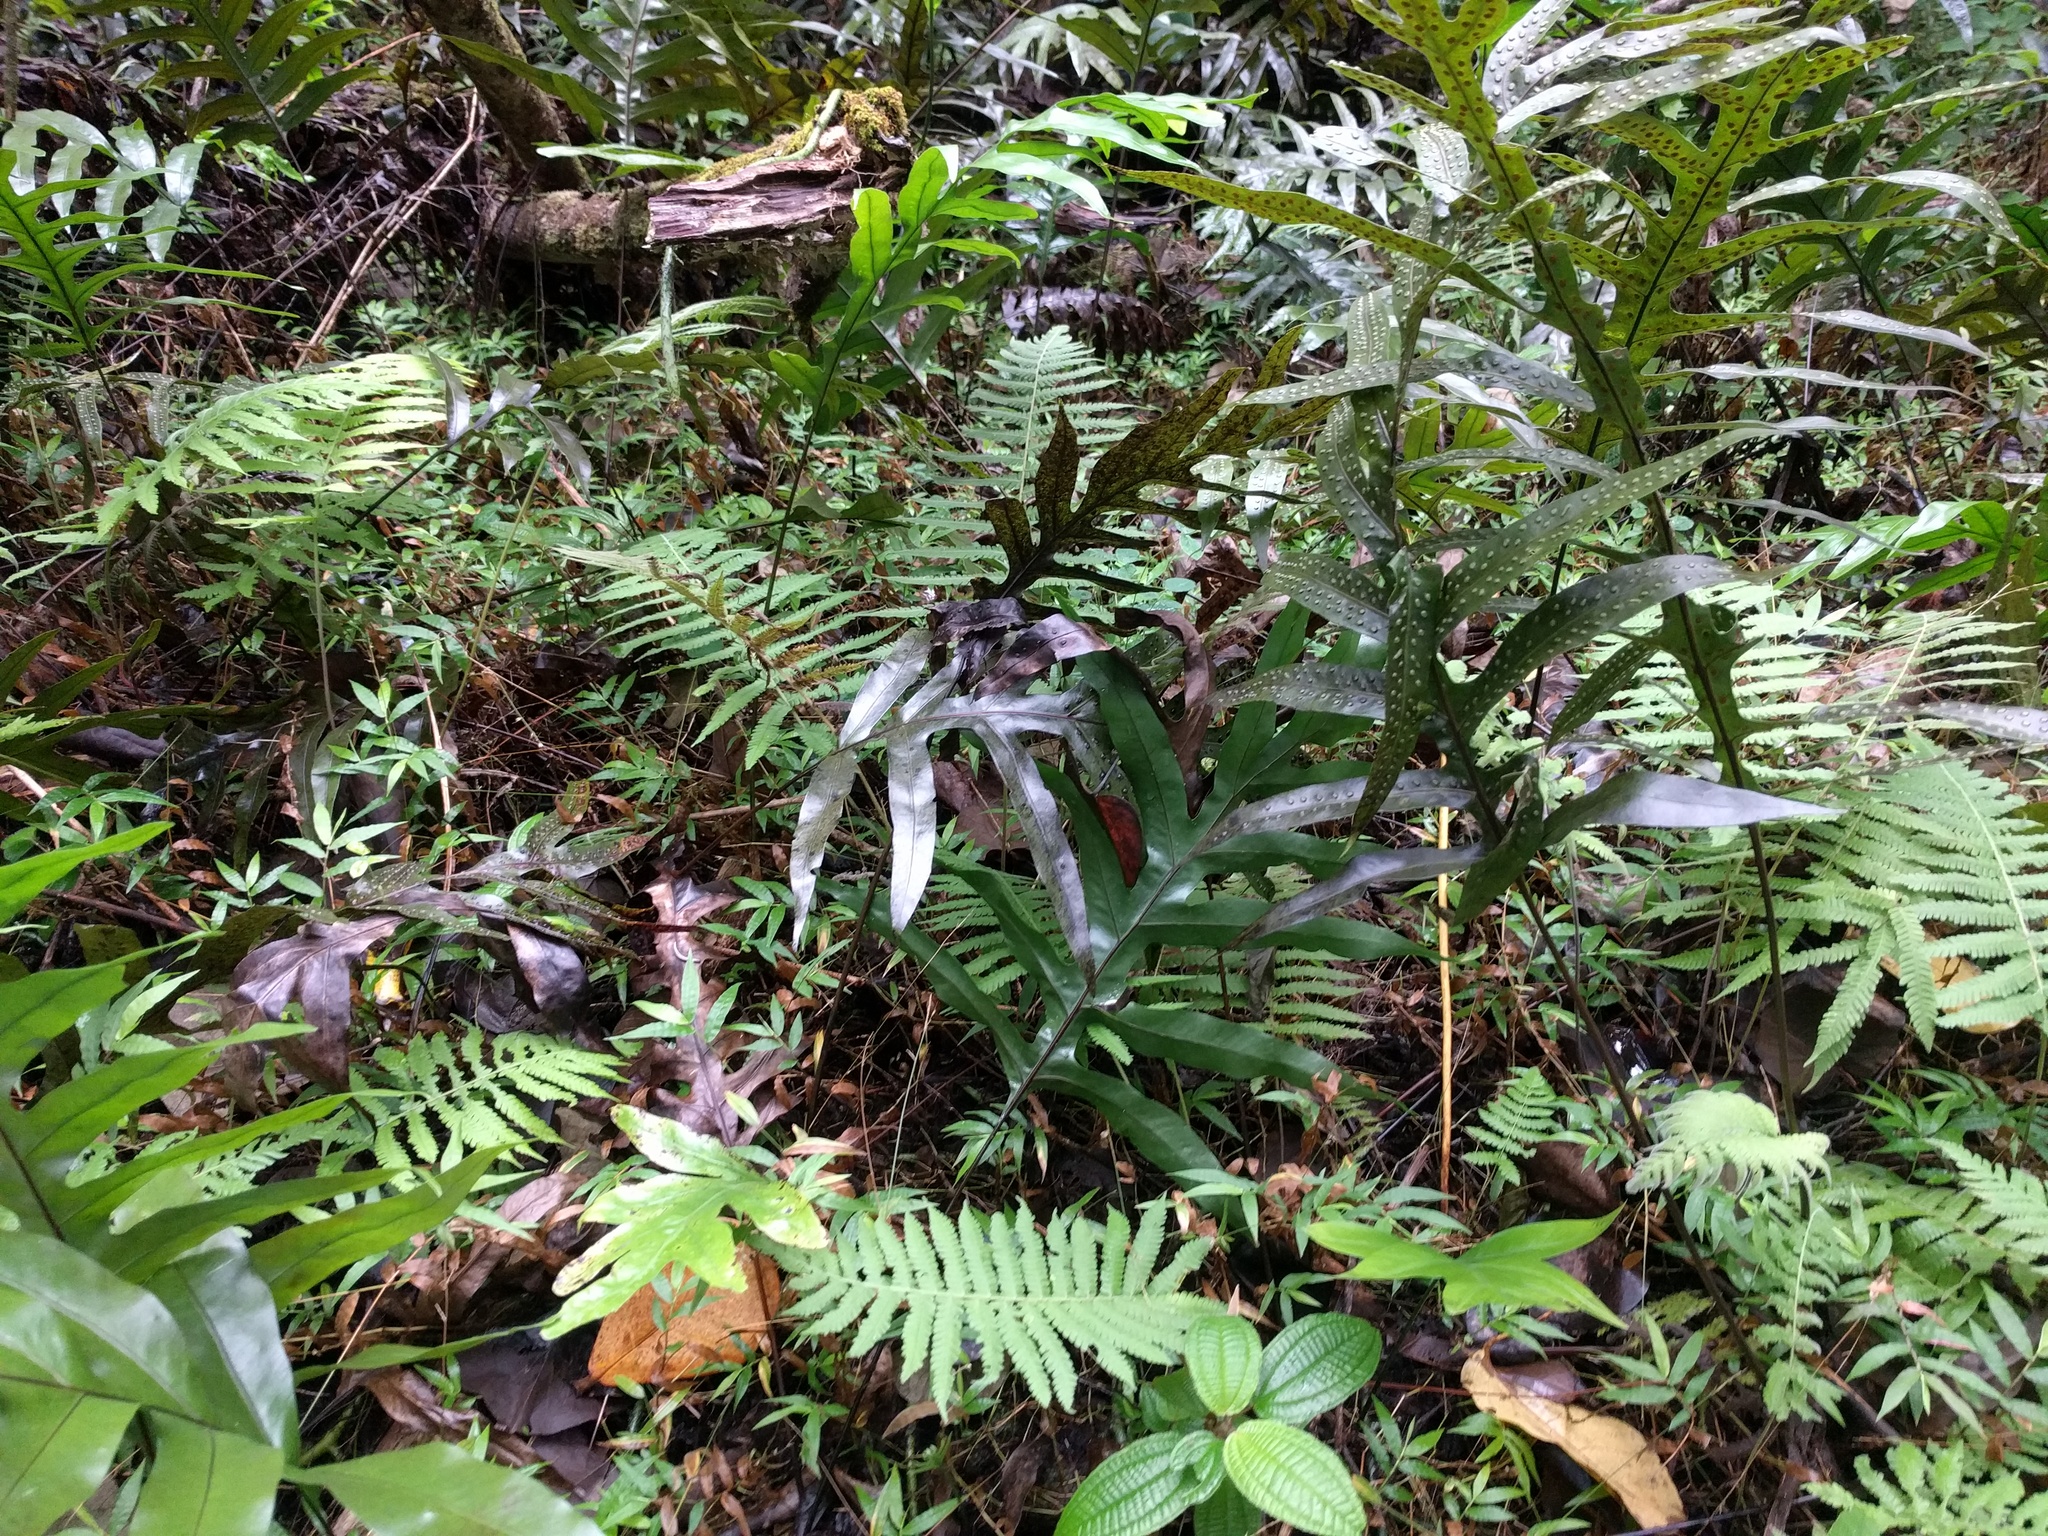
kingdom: Plantae
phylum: Tracheophyta
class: Polypodiopsida
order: Polypodiales
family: Polypodiaceae
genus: Microsorum
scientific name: Microsorum grossum
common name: Musk fern
